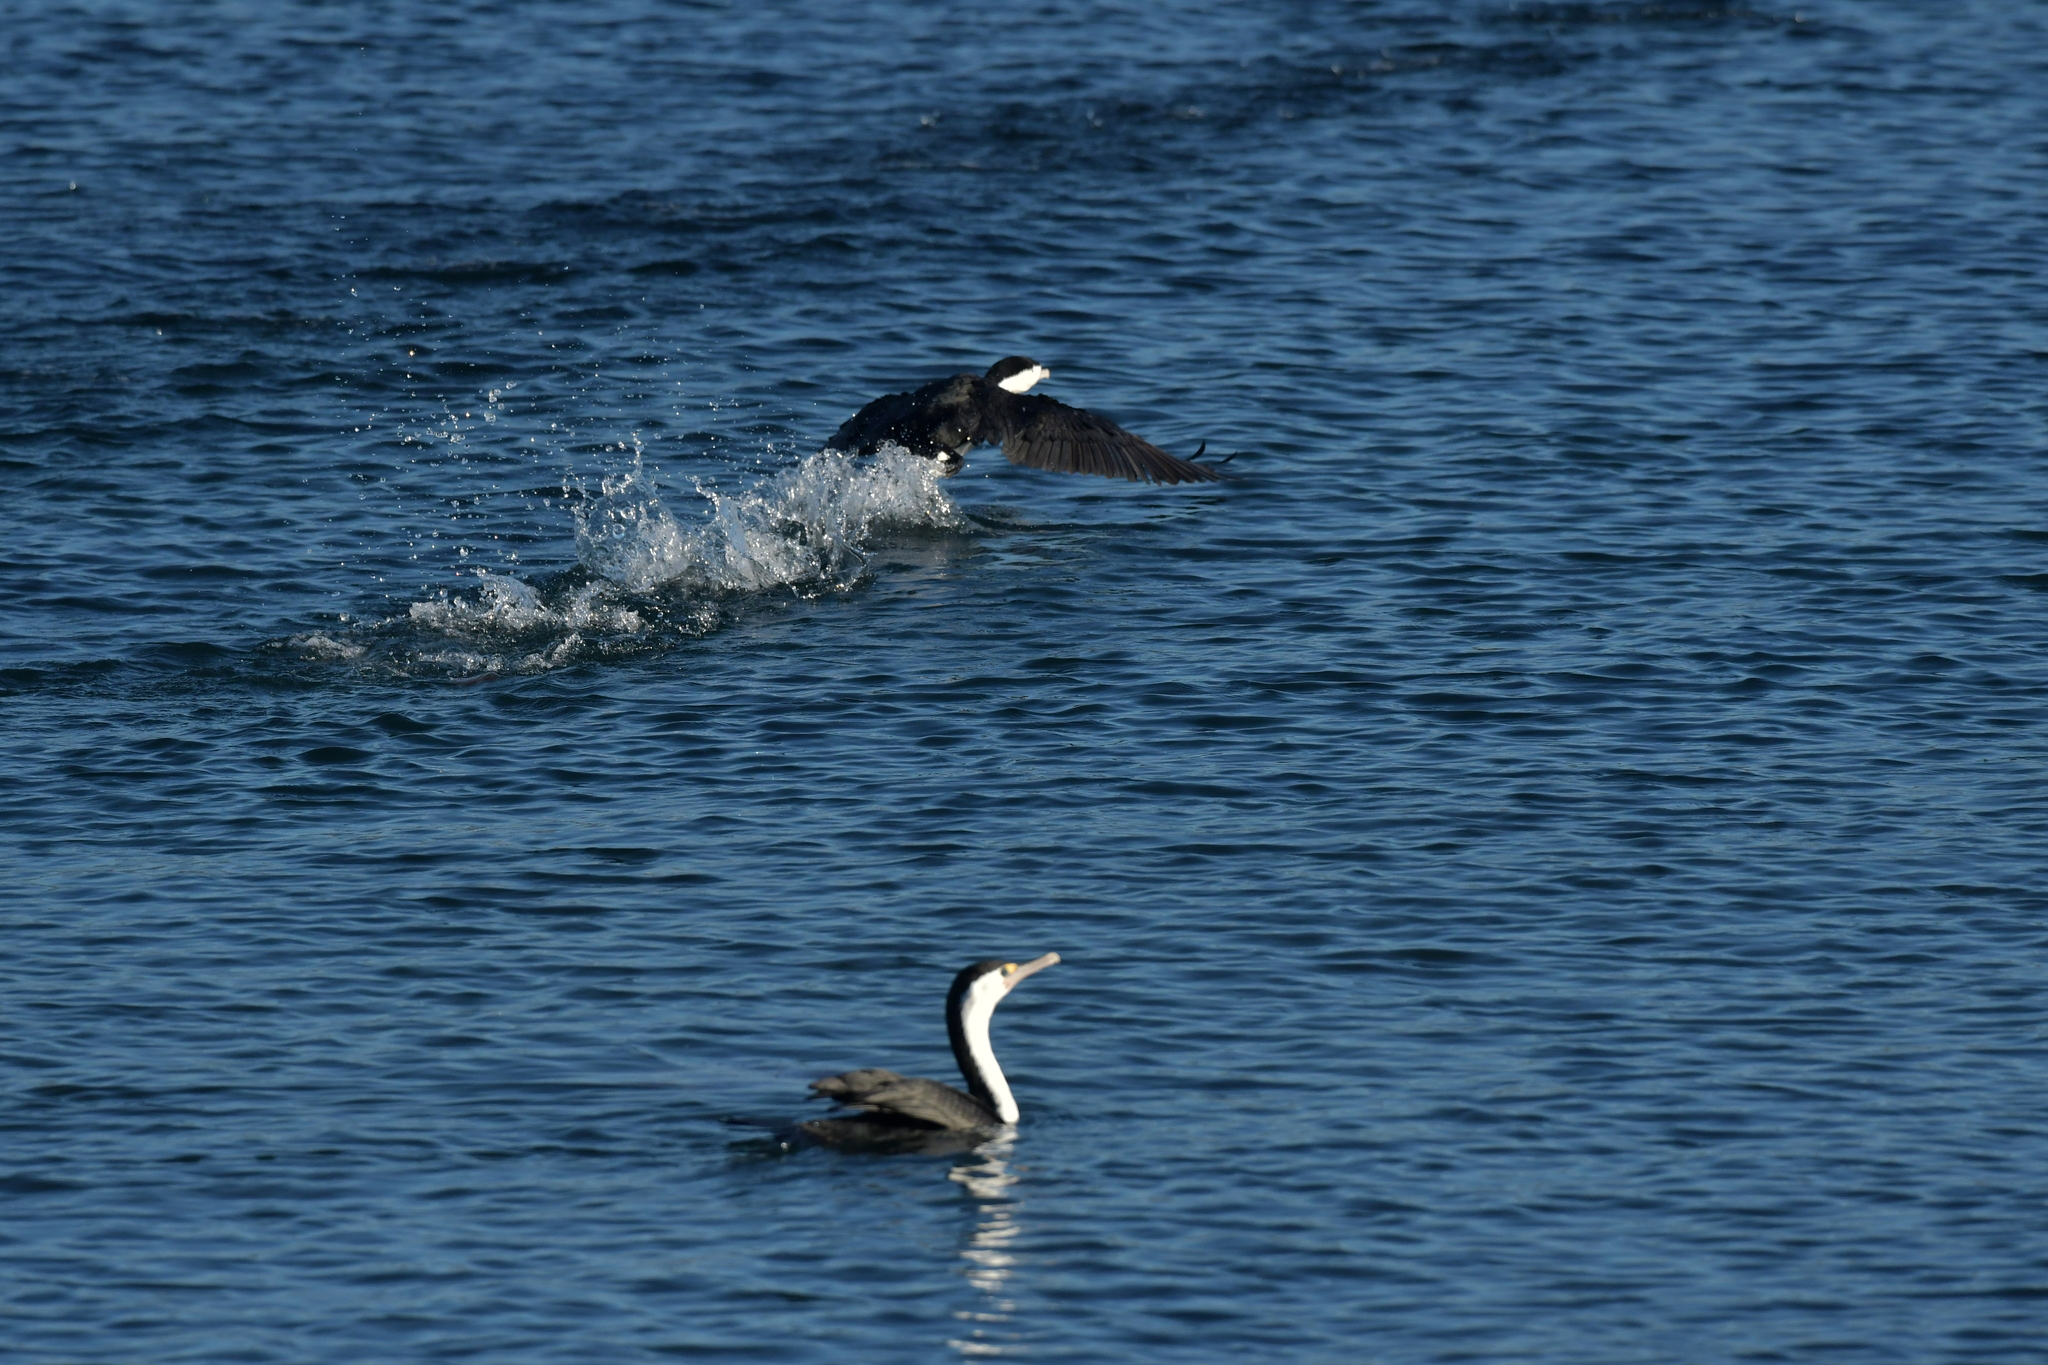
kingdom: Animalia
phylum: Chordata
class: Aves
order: Suliformes
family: Phalacrocoracidae
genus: Phalacrocorax
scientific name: Phalacrocorax varius
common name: Pied cormorant
